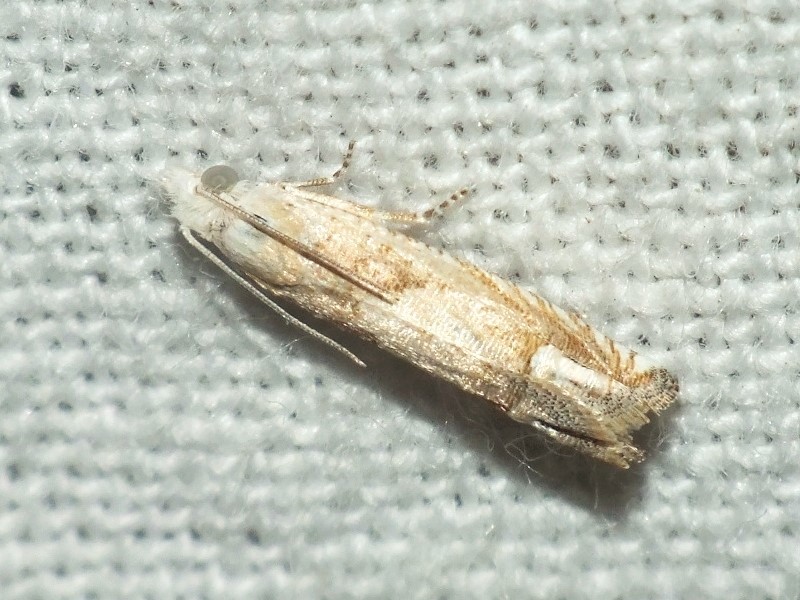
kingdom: Animalia
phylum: Arthropoda
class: Insecta
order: Lepidoptera
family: Tortricidae
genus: Eucosma
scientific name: Eucosma paetulana
